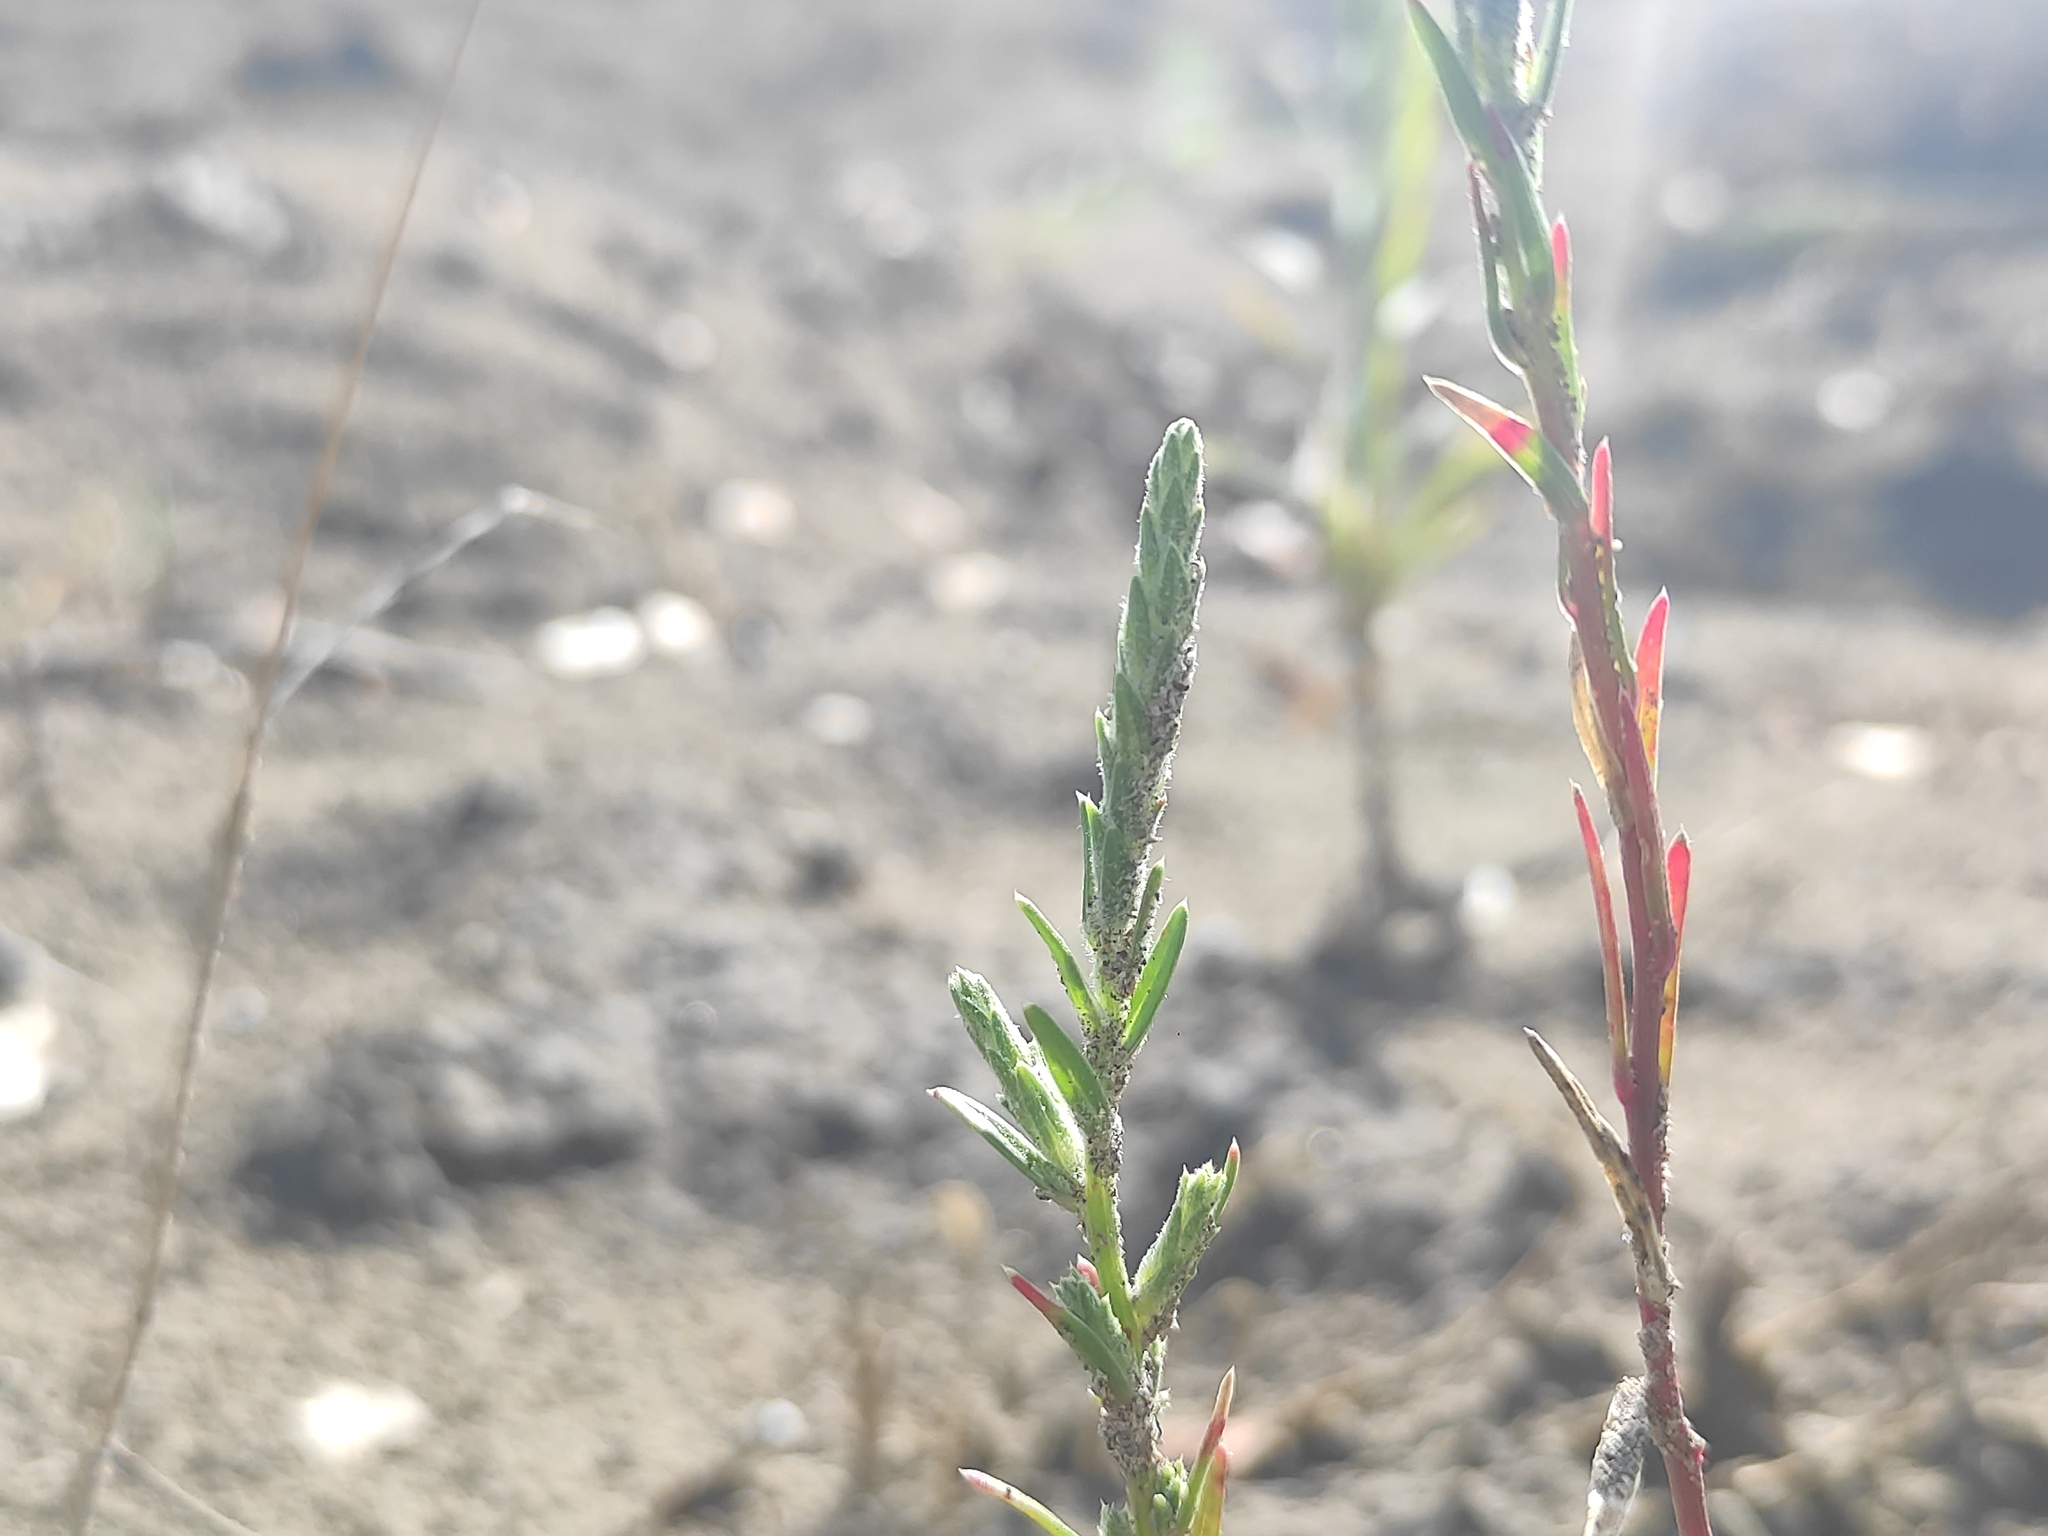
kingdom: Plantae
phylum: Tracheophyta
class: Magnoliopsida
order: Caryophyllales
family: Amaranthaceae
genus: Corispermum
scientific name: Corispermum gallicum
